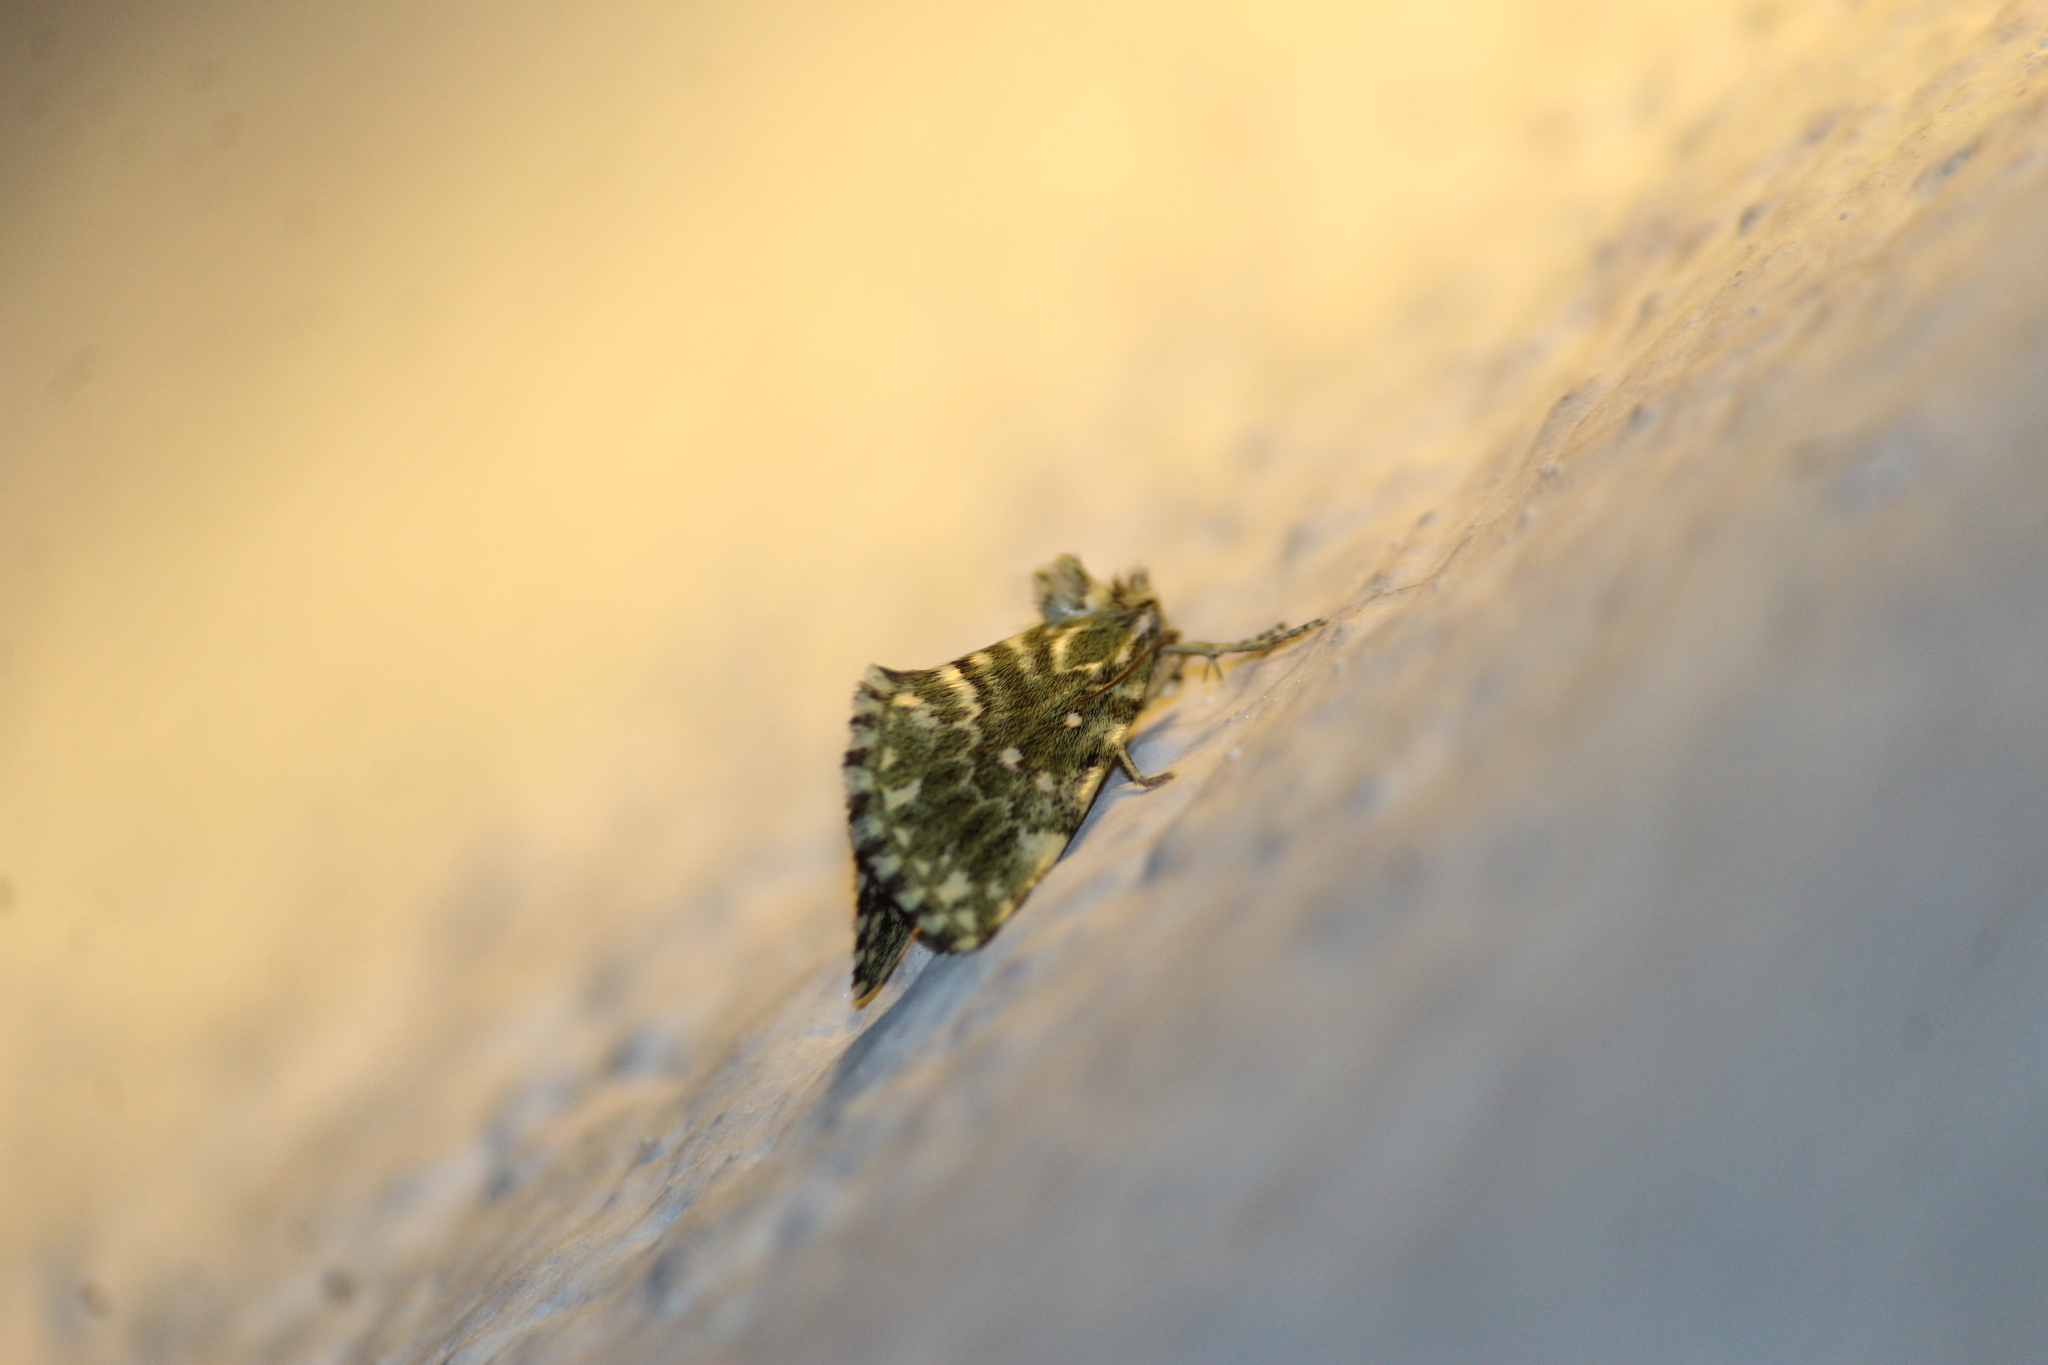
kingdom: Animalia
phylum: Arthropoda
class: Insecta
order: Lepidoptera
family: Noctuidae
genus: Plagiomimicus
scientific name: Plagiomimicus pyralina
